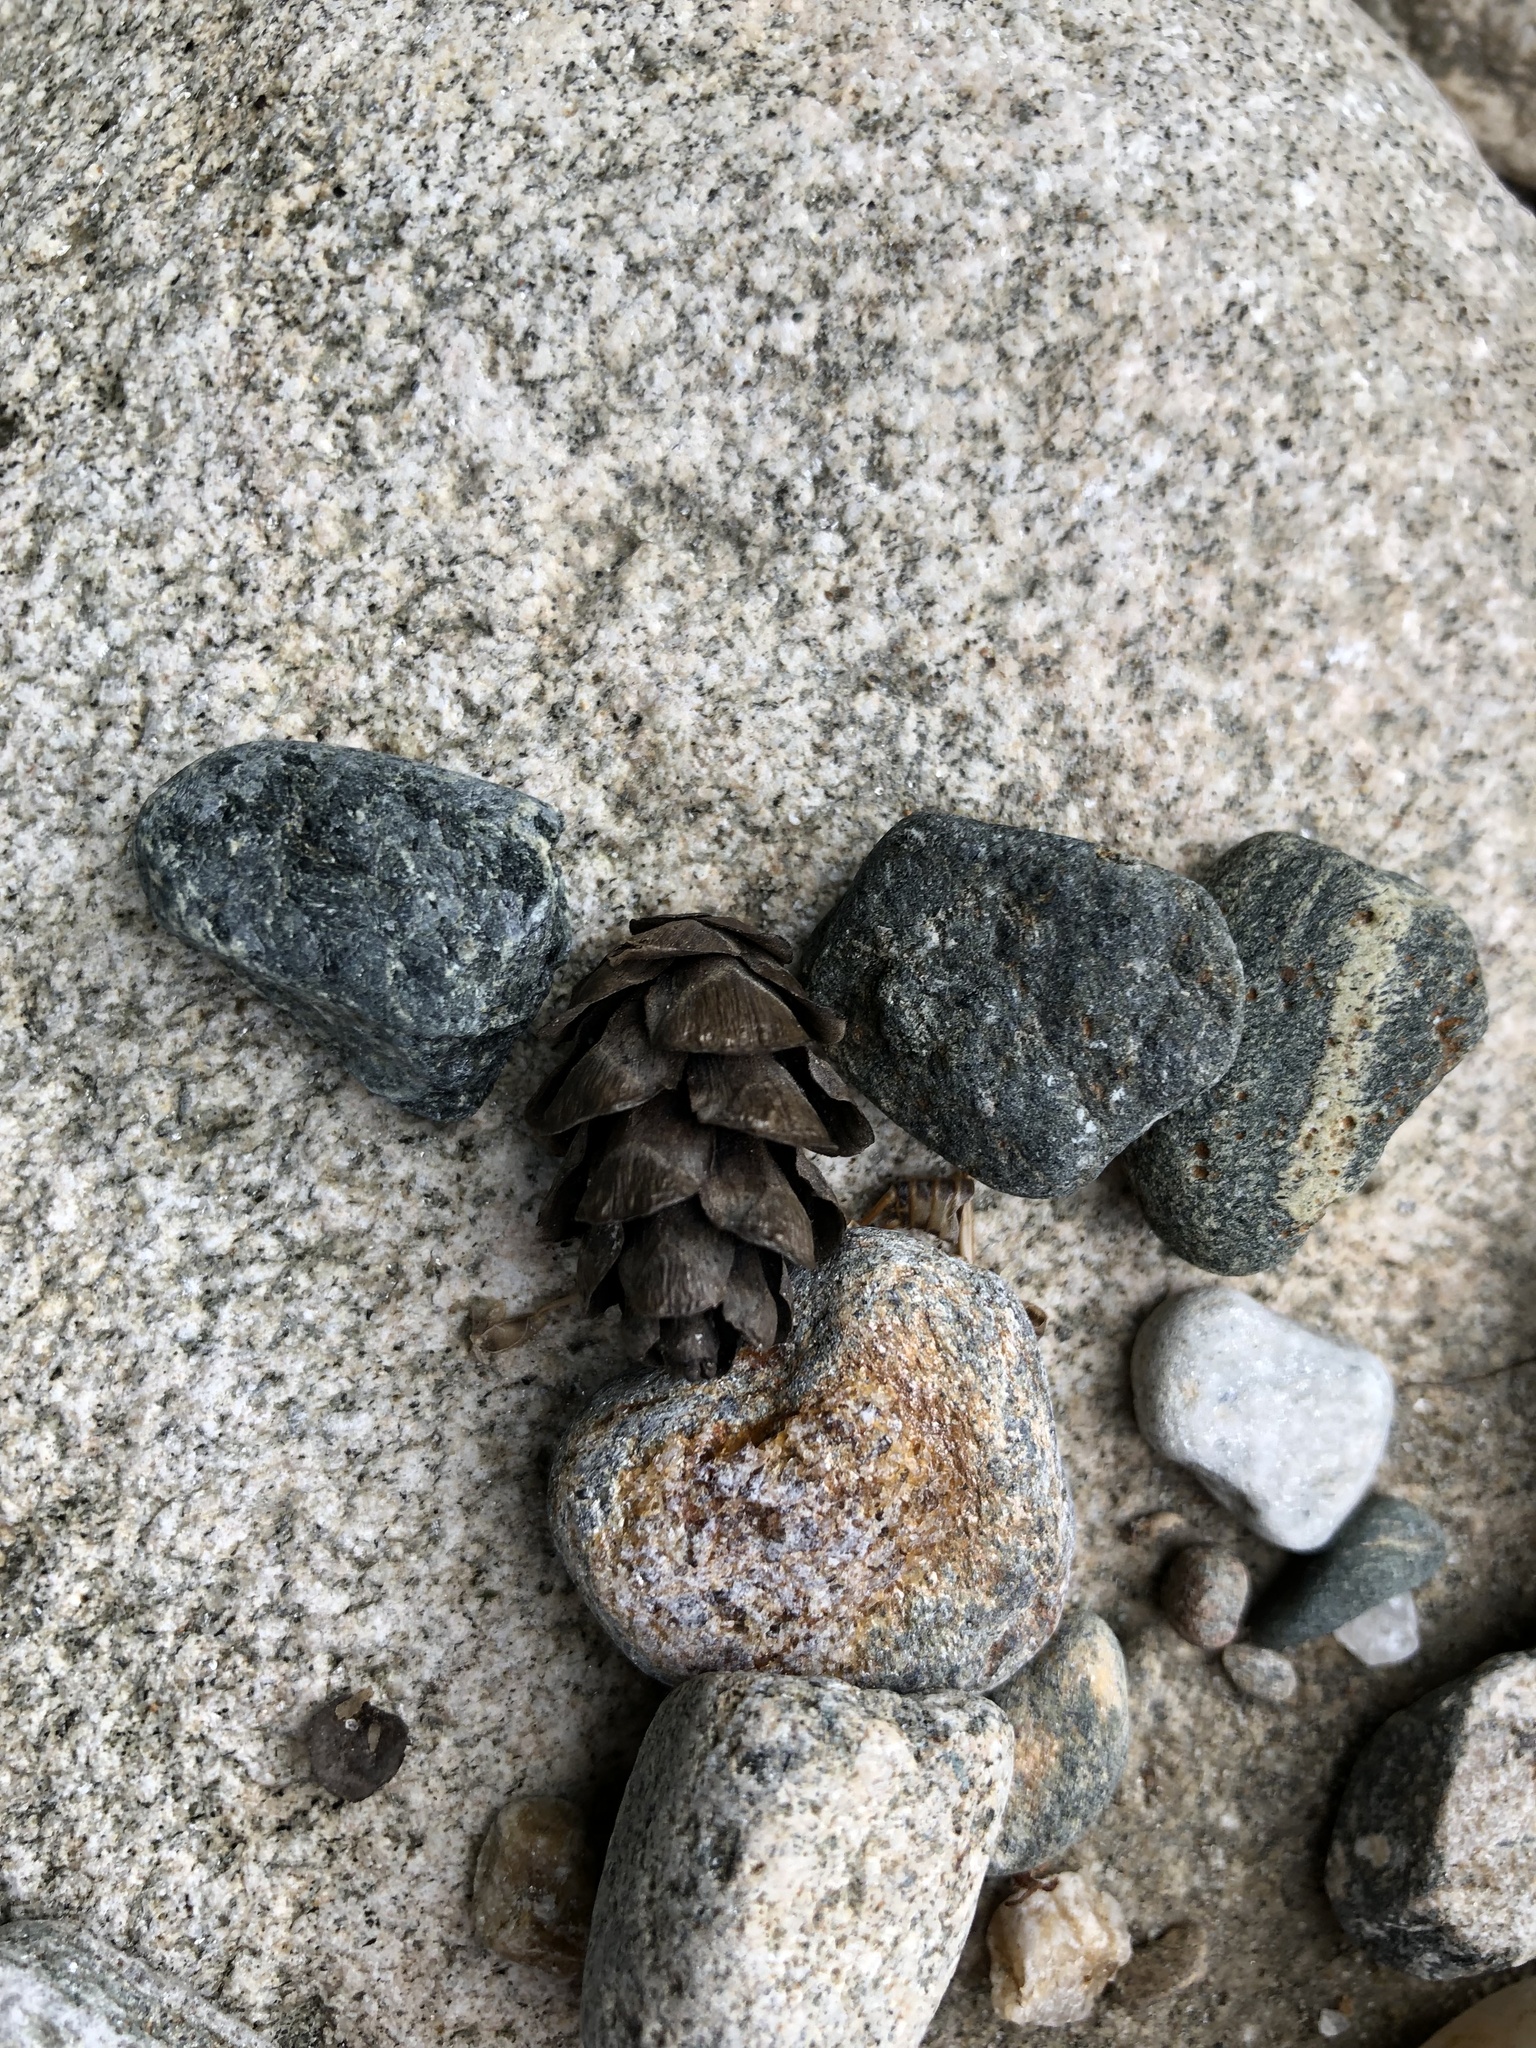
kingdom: Plantae
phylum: Tracheophyta
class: Pinopsida
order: Pinales
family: Pinaceae
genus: Tsuga
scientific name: Tsuga canadensis
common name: Eastern hemlock
